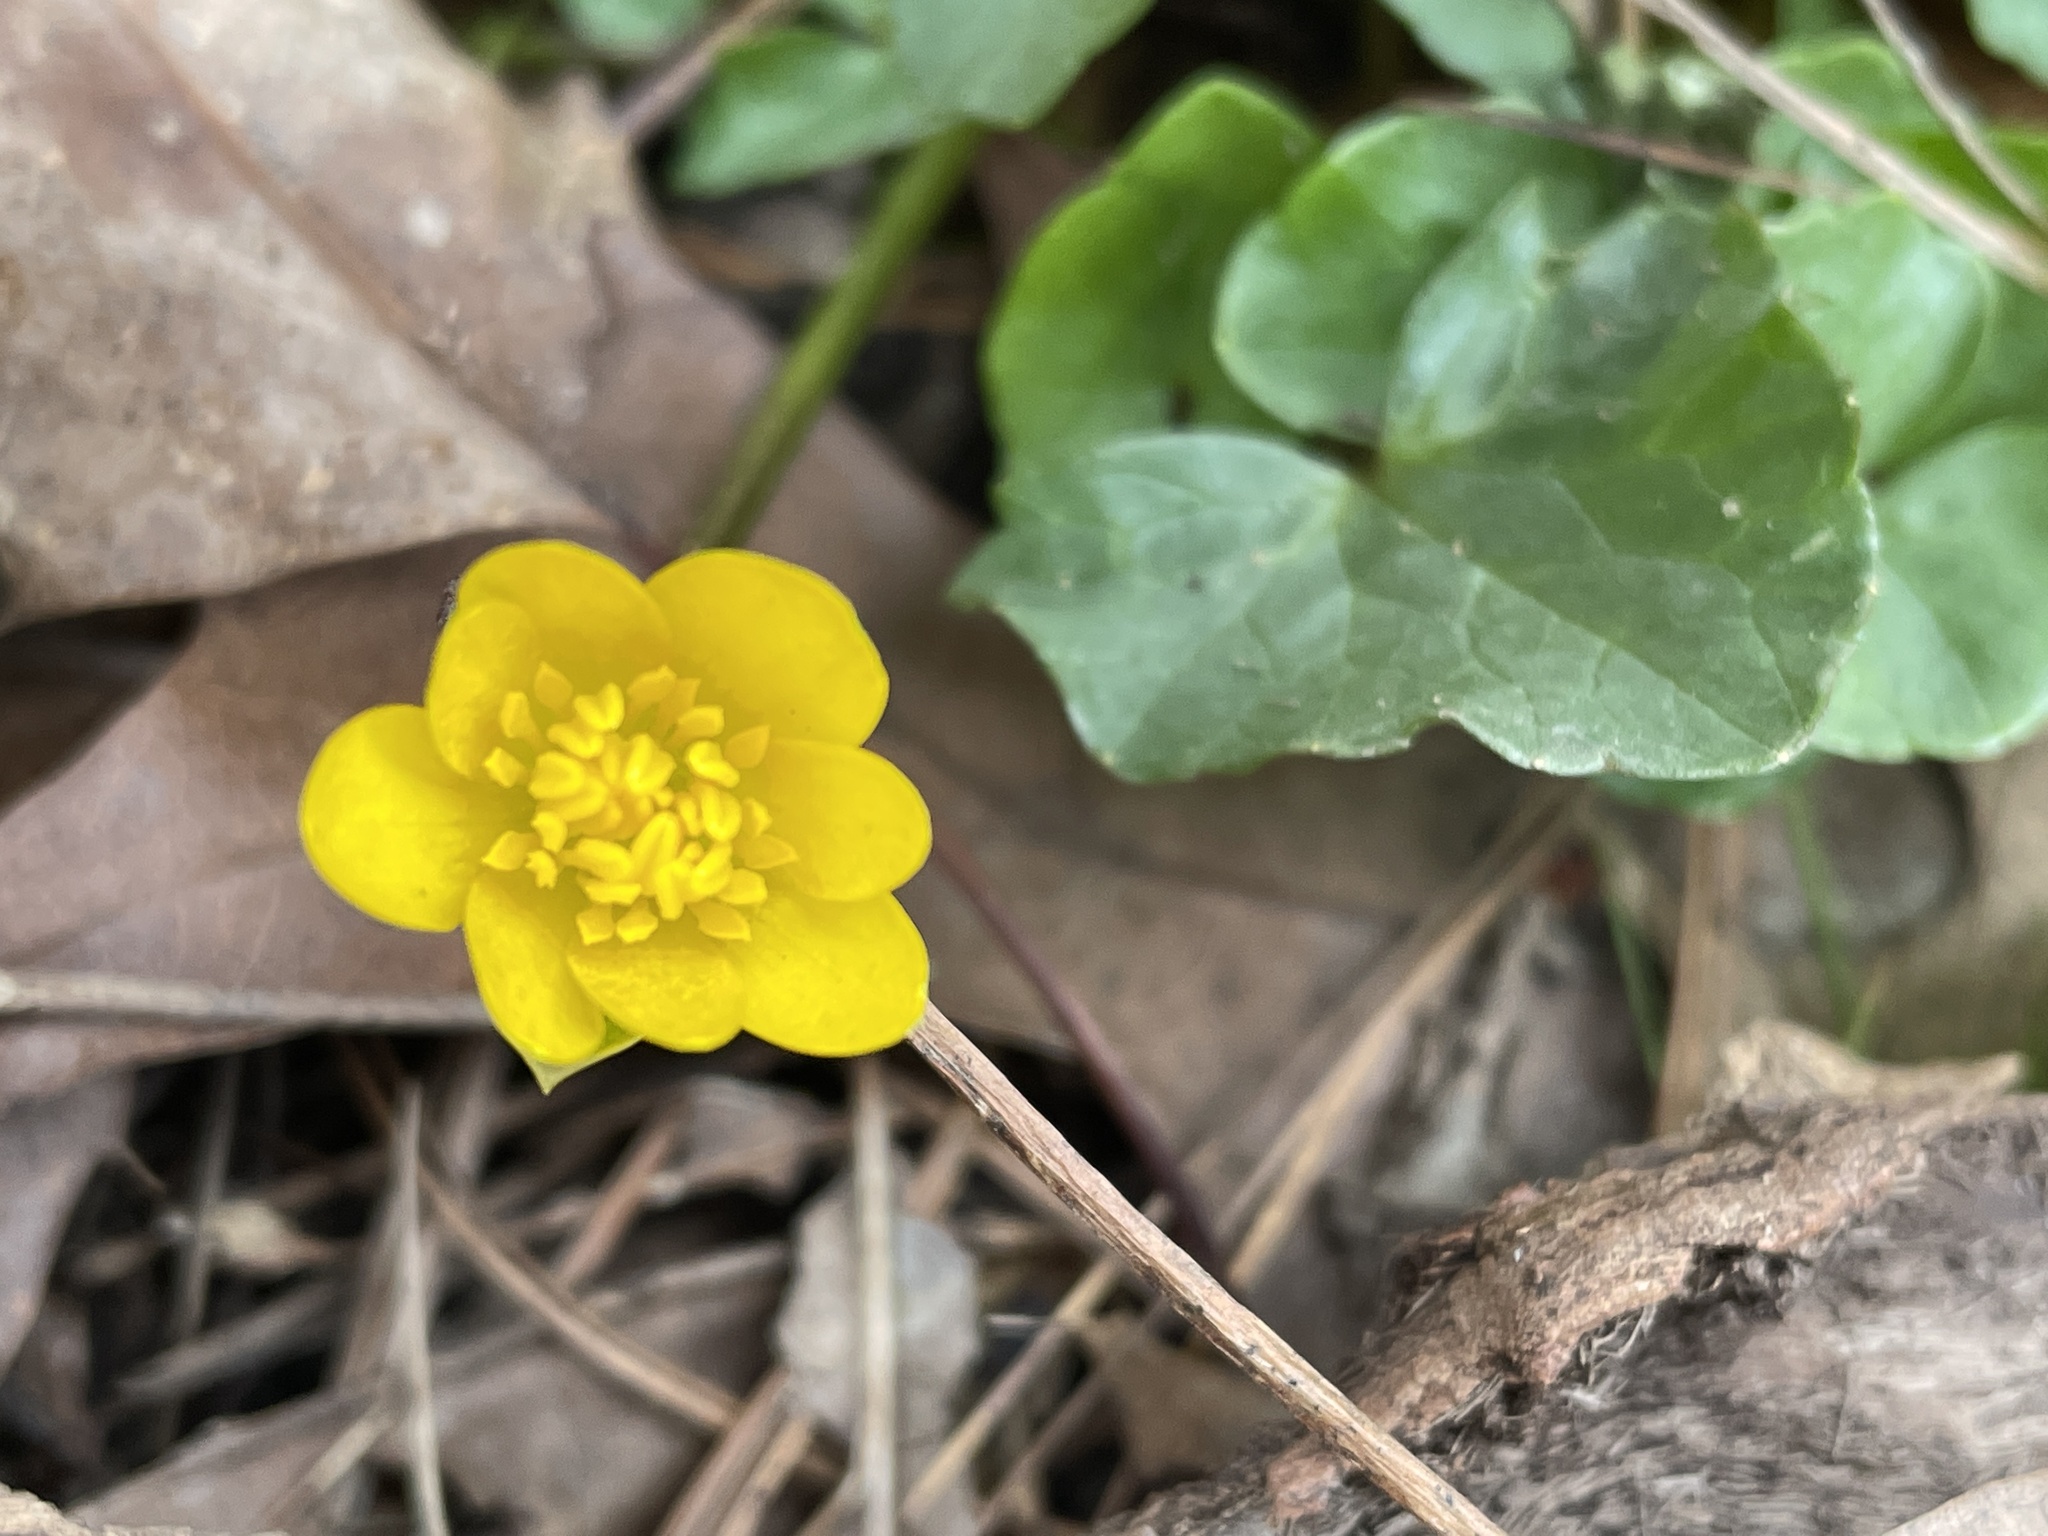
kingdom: Plantae
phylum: Tracheophyta
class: Magnoliopsida
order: Ranunculales
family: Ranunculaceae
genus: Ficaria
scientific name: Ficaria verna
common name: Lesser celandine
